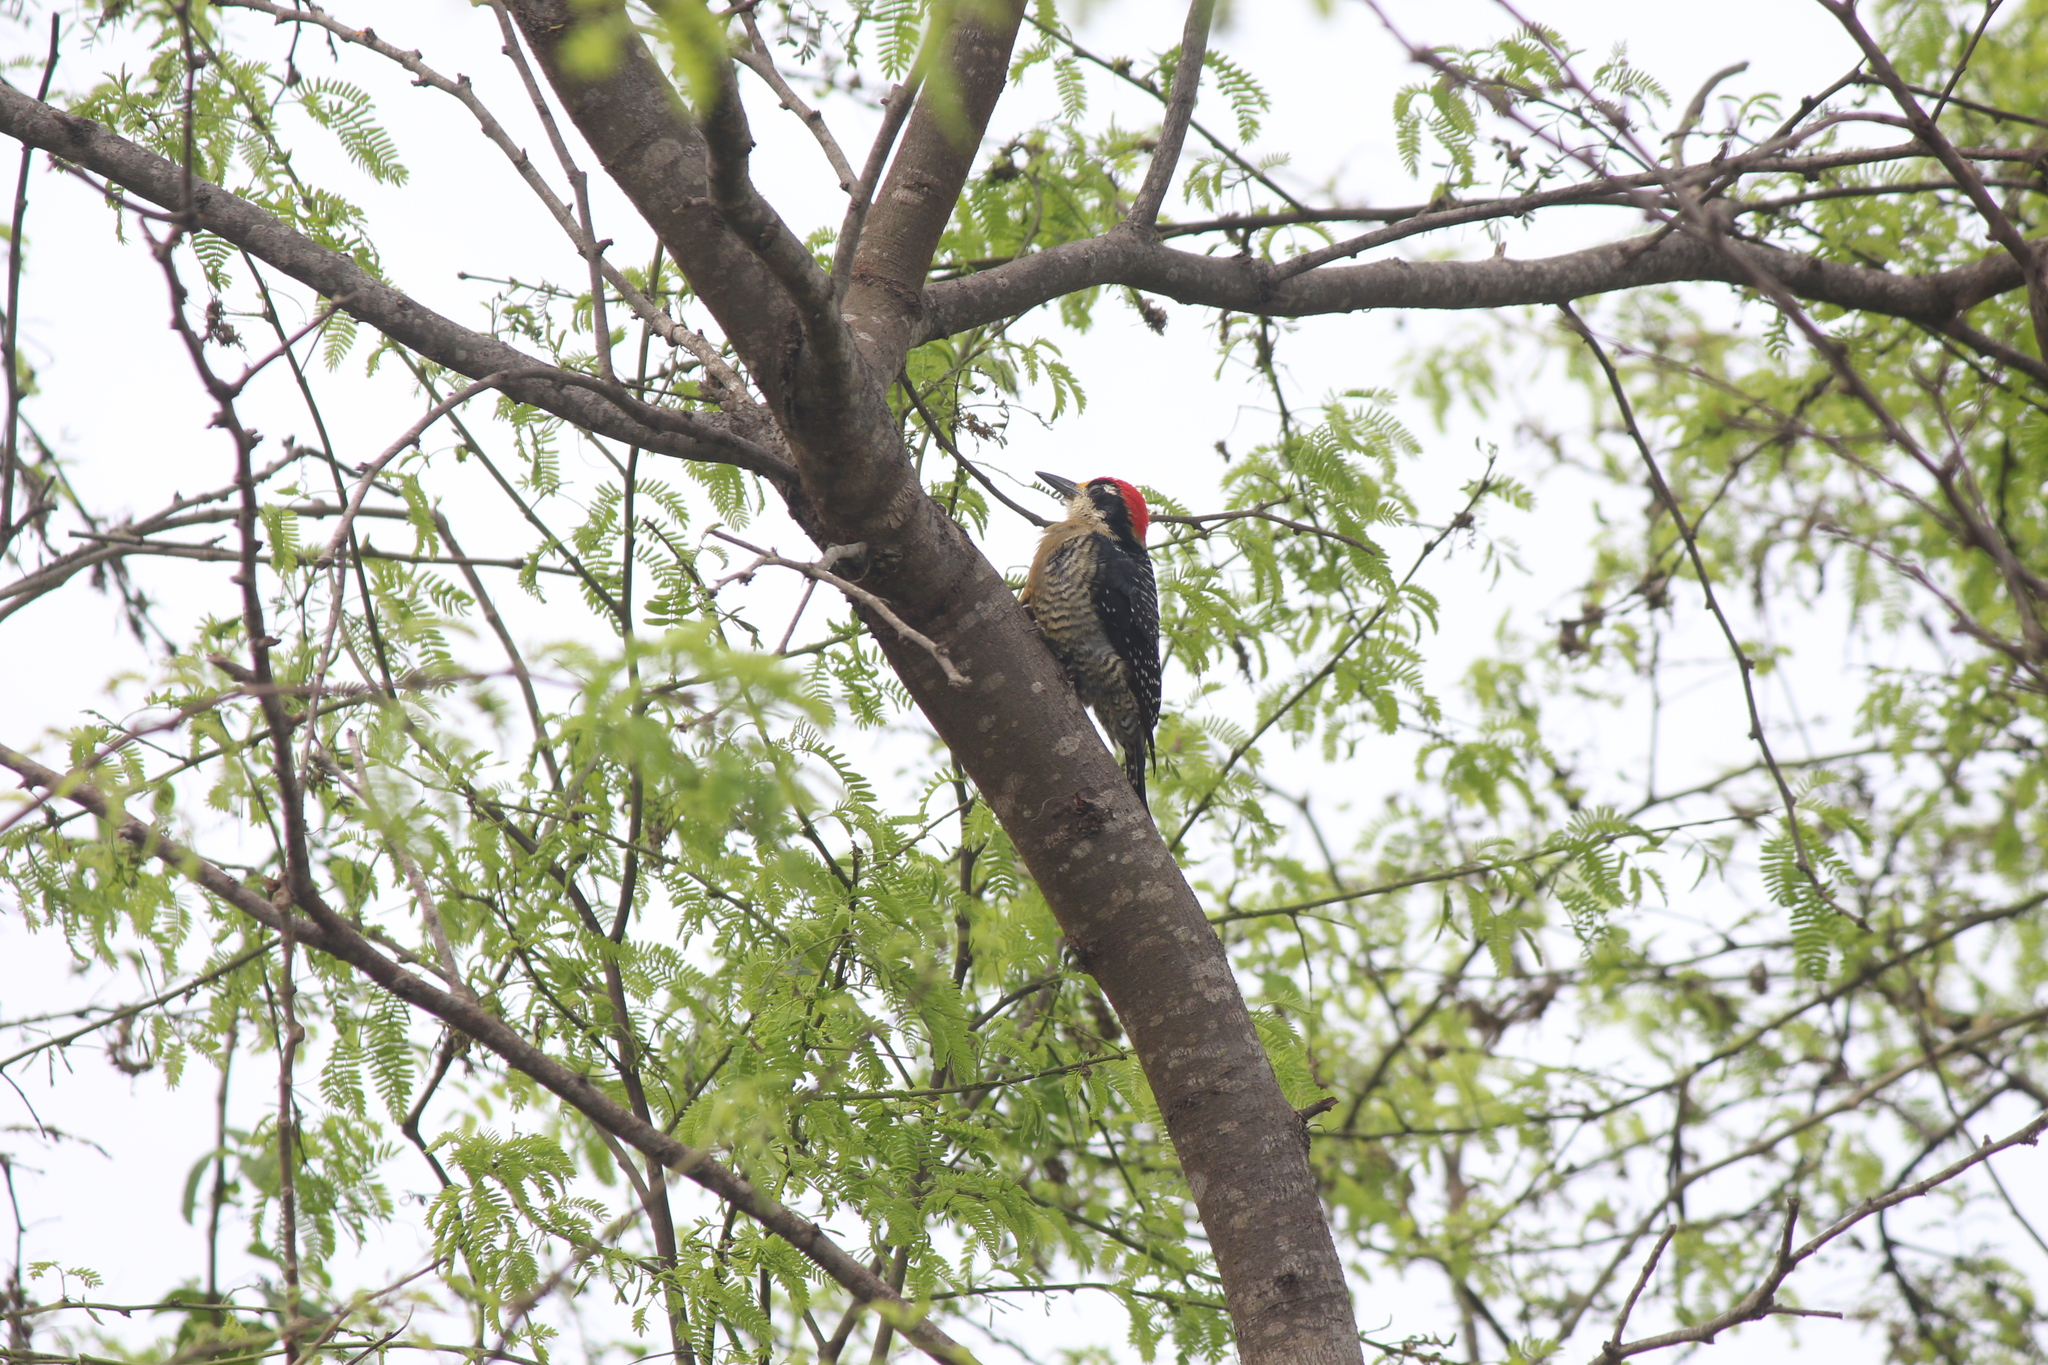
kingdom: Animalia
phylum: Chordata
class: Aves
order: Piciformes
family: Picidae
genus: Melanerpes
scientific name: Melanerpes pucherani
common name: Black-cheeked woodpecker
